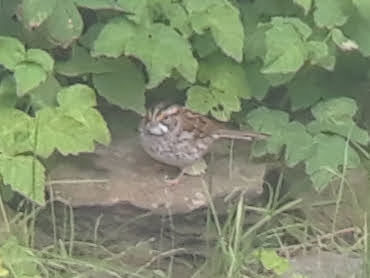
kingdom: Animalia
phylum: Chordata
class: Aves
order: Passeriformes
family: Passerellidae
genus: Zonotrichia
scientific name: Zonotrichia albicollis
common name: White-throated sparrow
